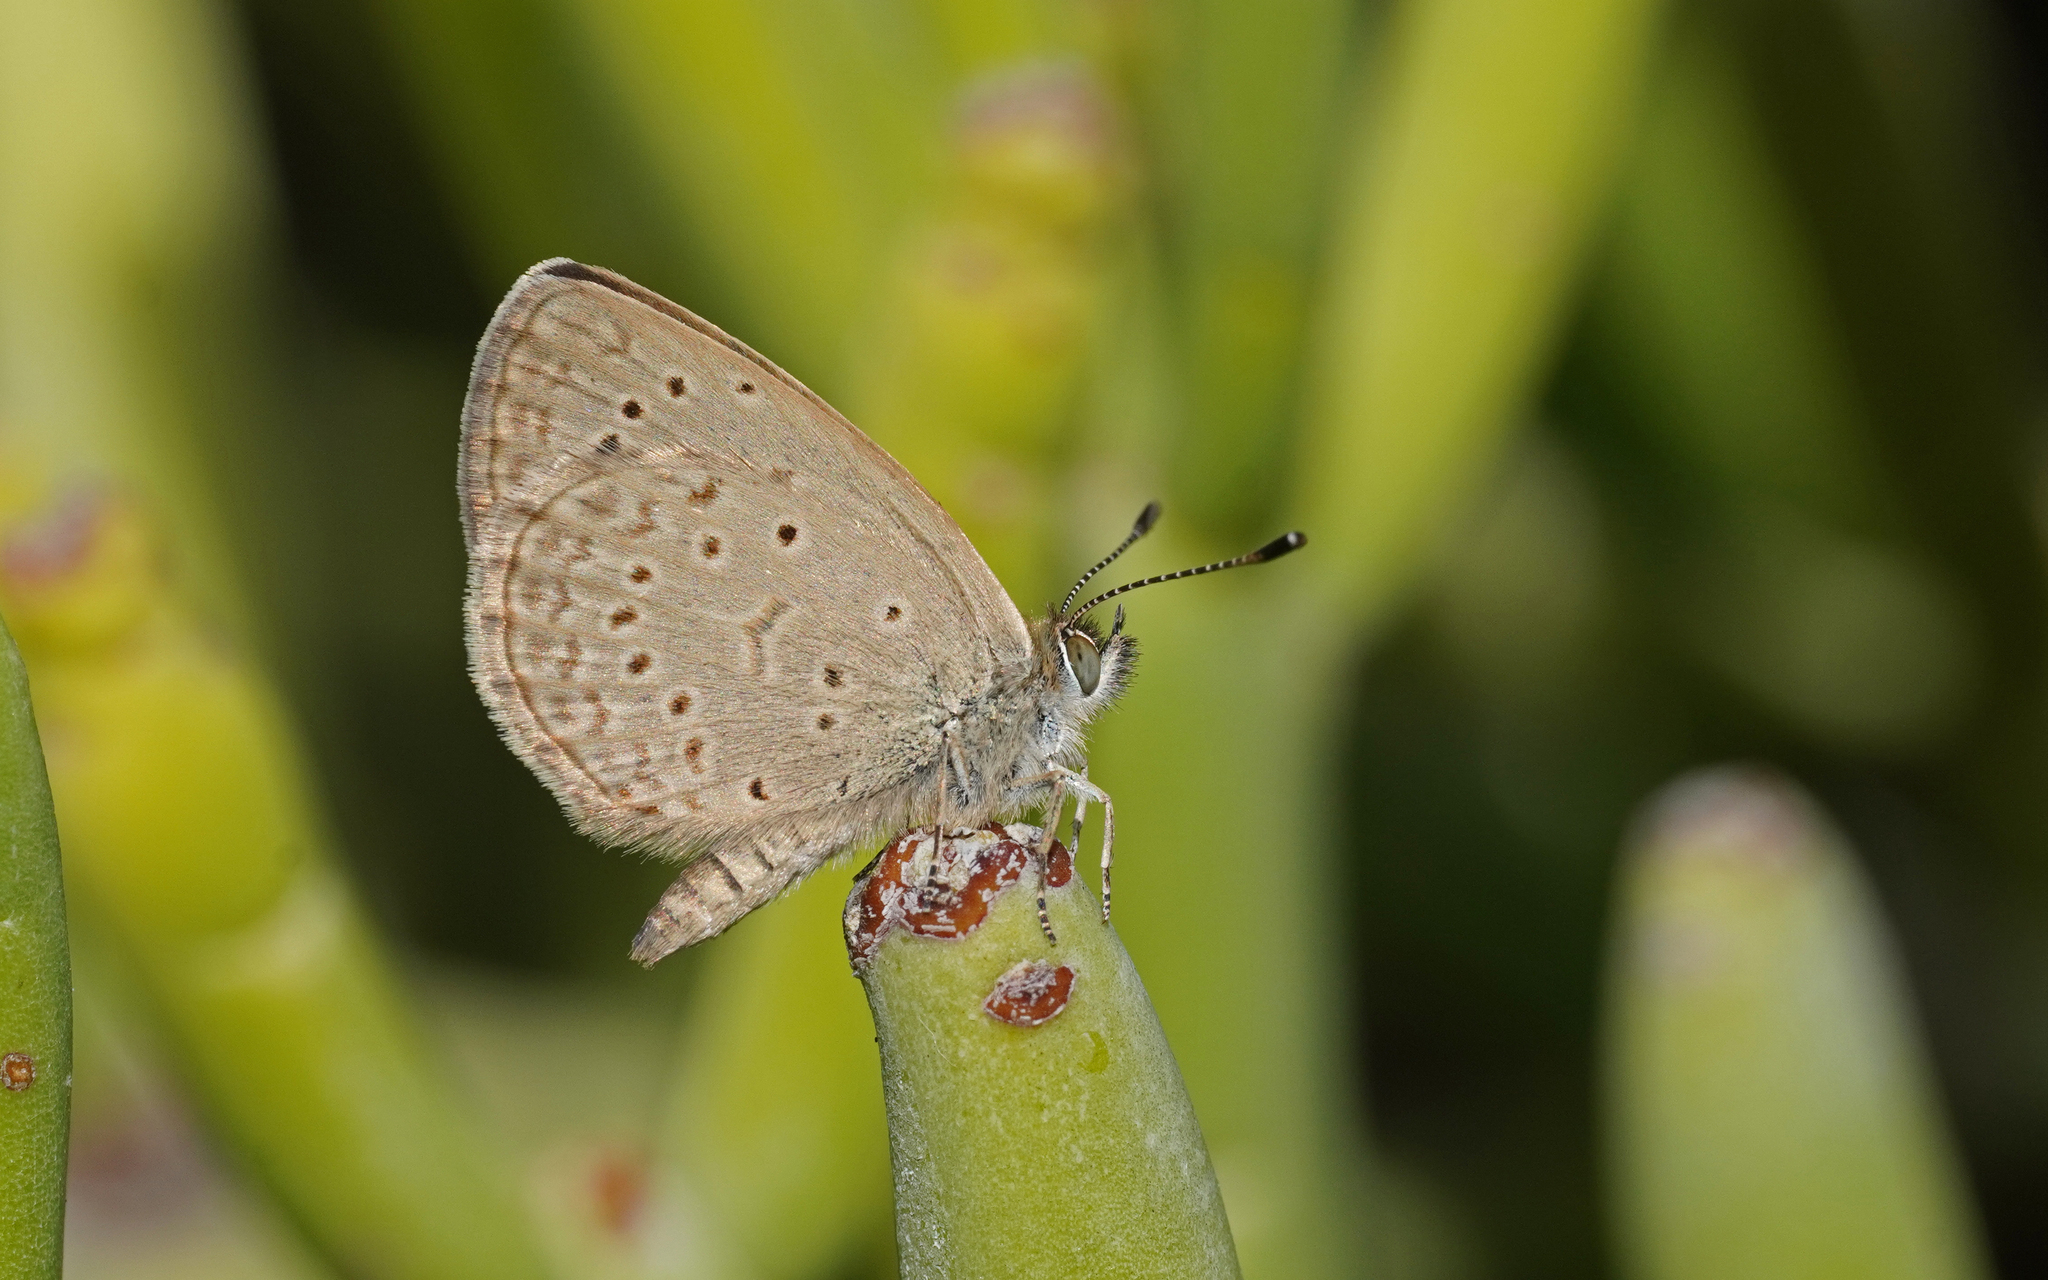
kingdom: Animalia
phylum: Arthropoda
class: Insecta
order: Lepidoptera
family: Lycaenidae
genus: Zizeeria
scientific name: Zizeeria knysna
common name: African grass blue
